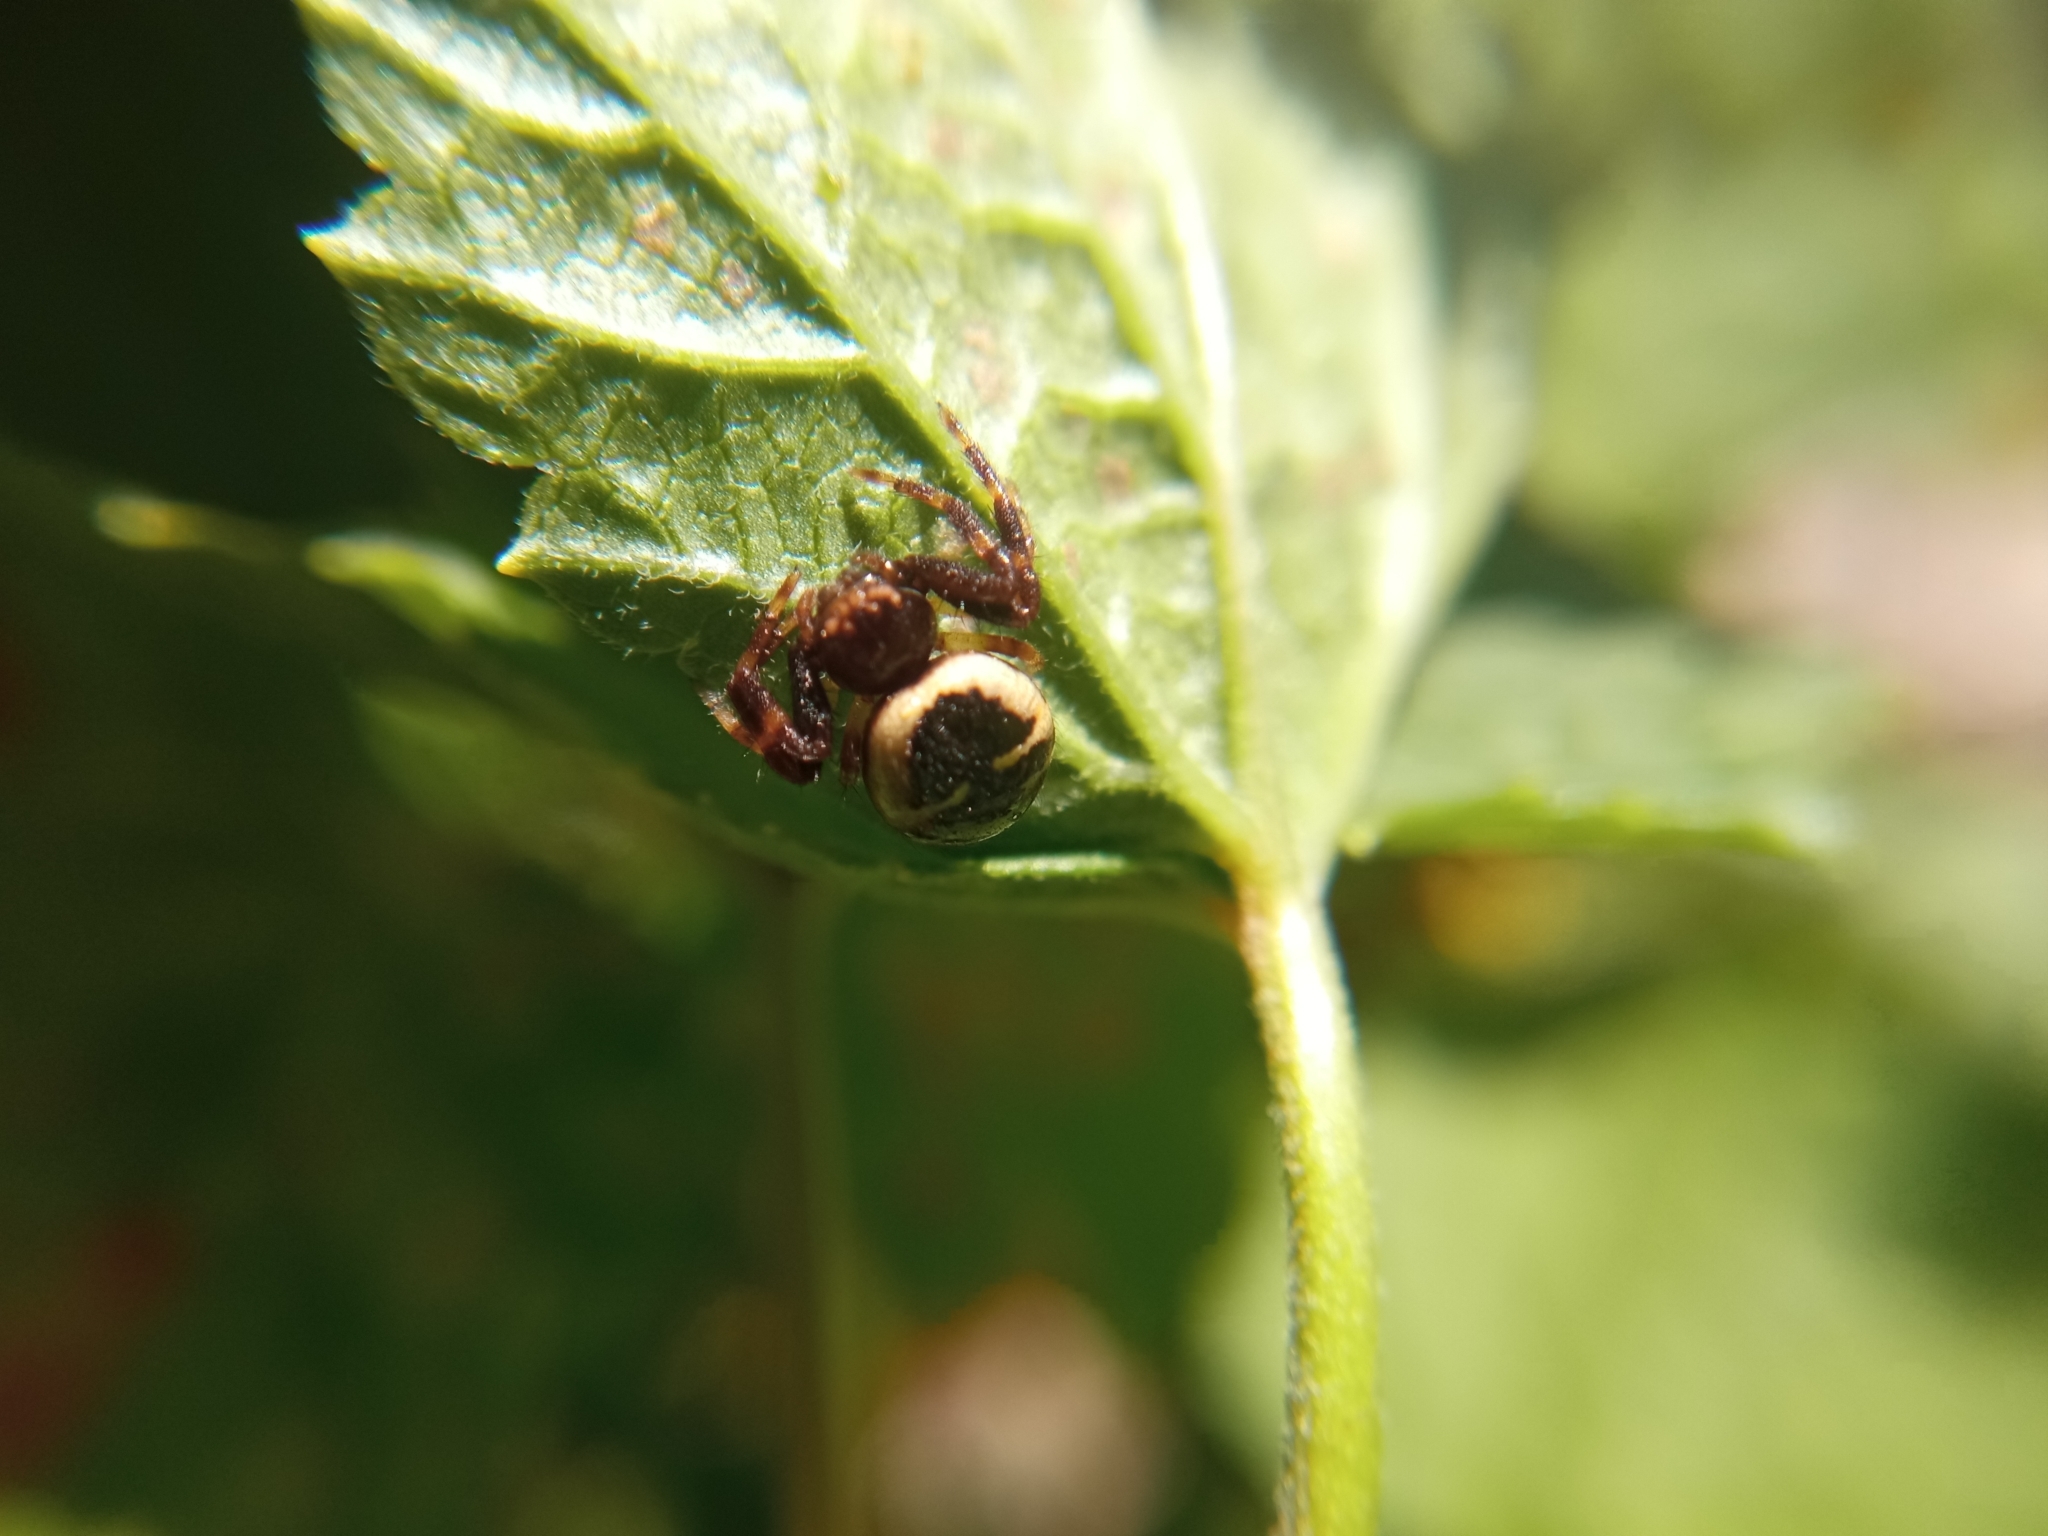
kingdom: Animalia
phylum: Arthropoda
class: Arachnida
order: Araneae
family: Thomisidae
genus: Synema
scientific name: Synema globosum
